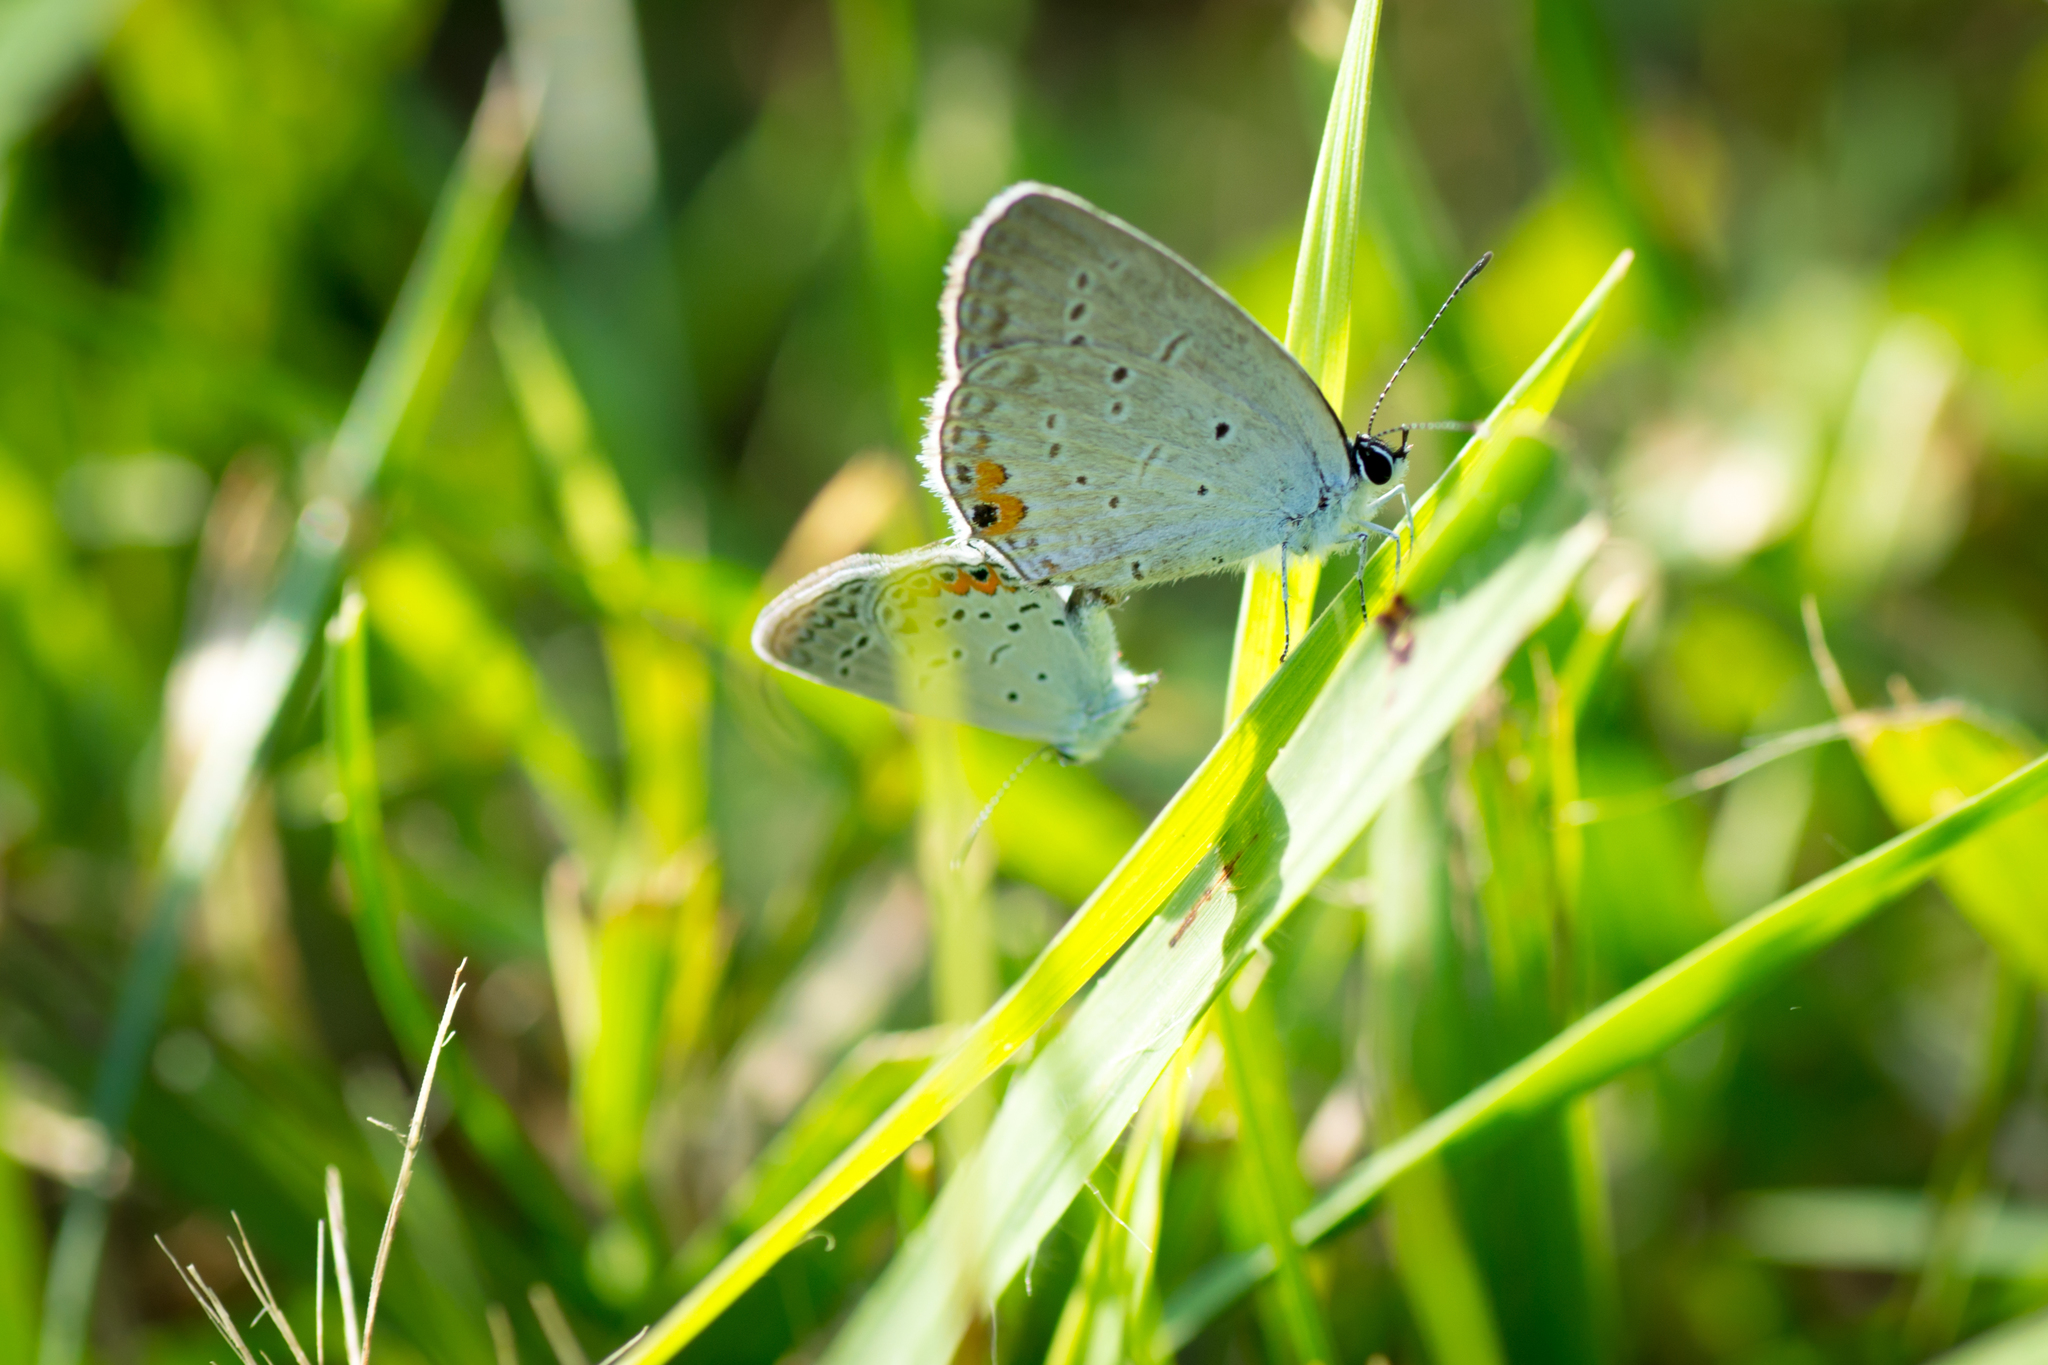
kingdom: Animalia
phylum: Arthropoda
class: Insecta
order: Lepidoptera
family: Lycaenidae
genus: Elkalyce
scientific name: Elkalyce comyntas
